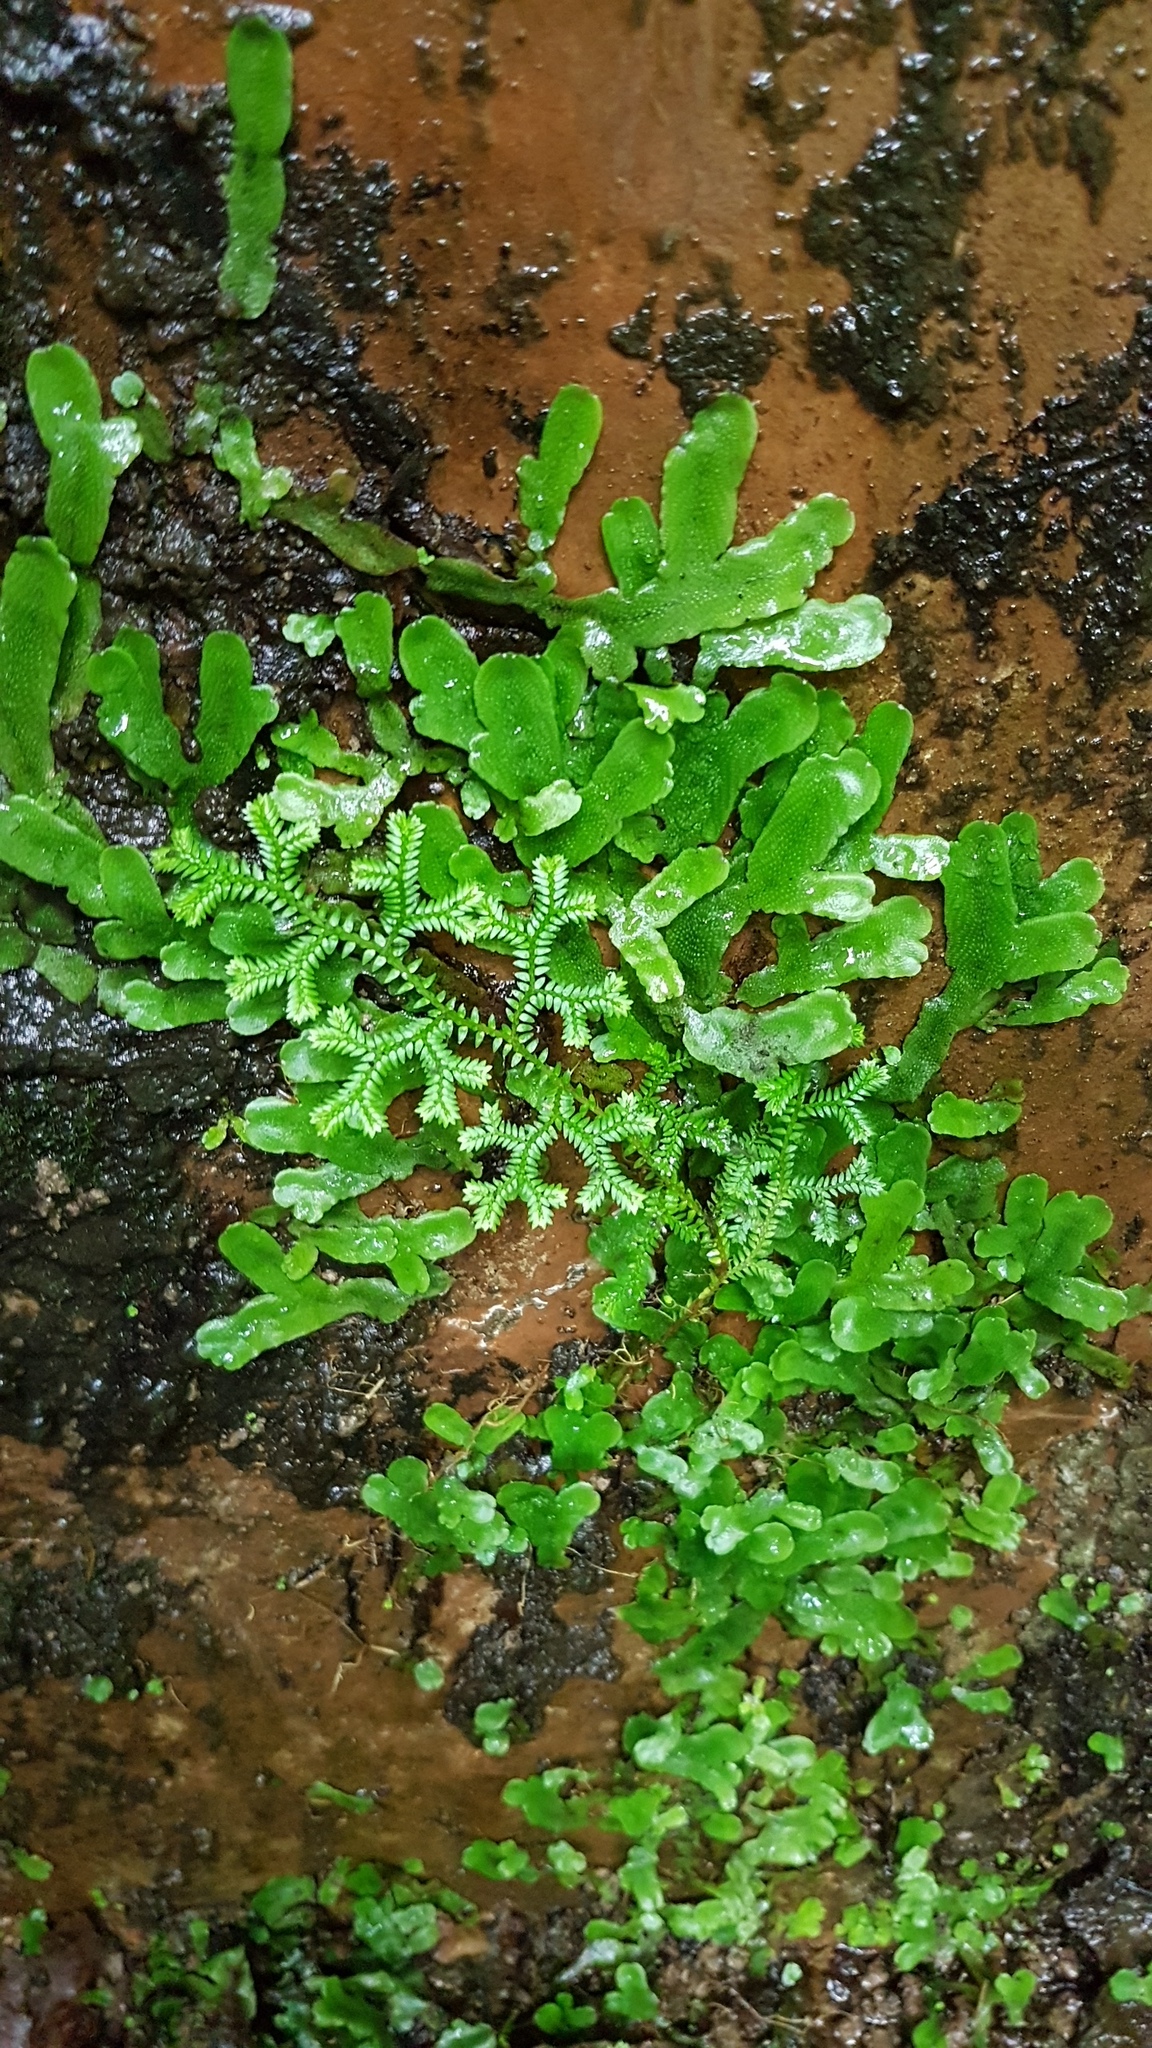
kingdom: Plantae
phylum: Tracheophyta
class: Lycopodiopsida
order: Selaginellales
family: Selaginellaceae
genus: Selaginella
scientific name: Selaginella kraussiana
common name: Krauss' spikemoss
